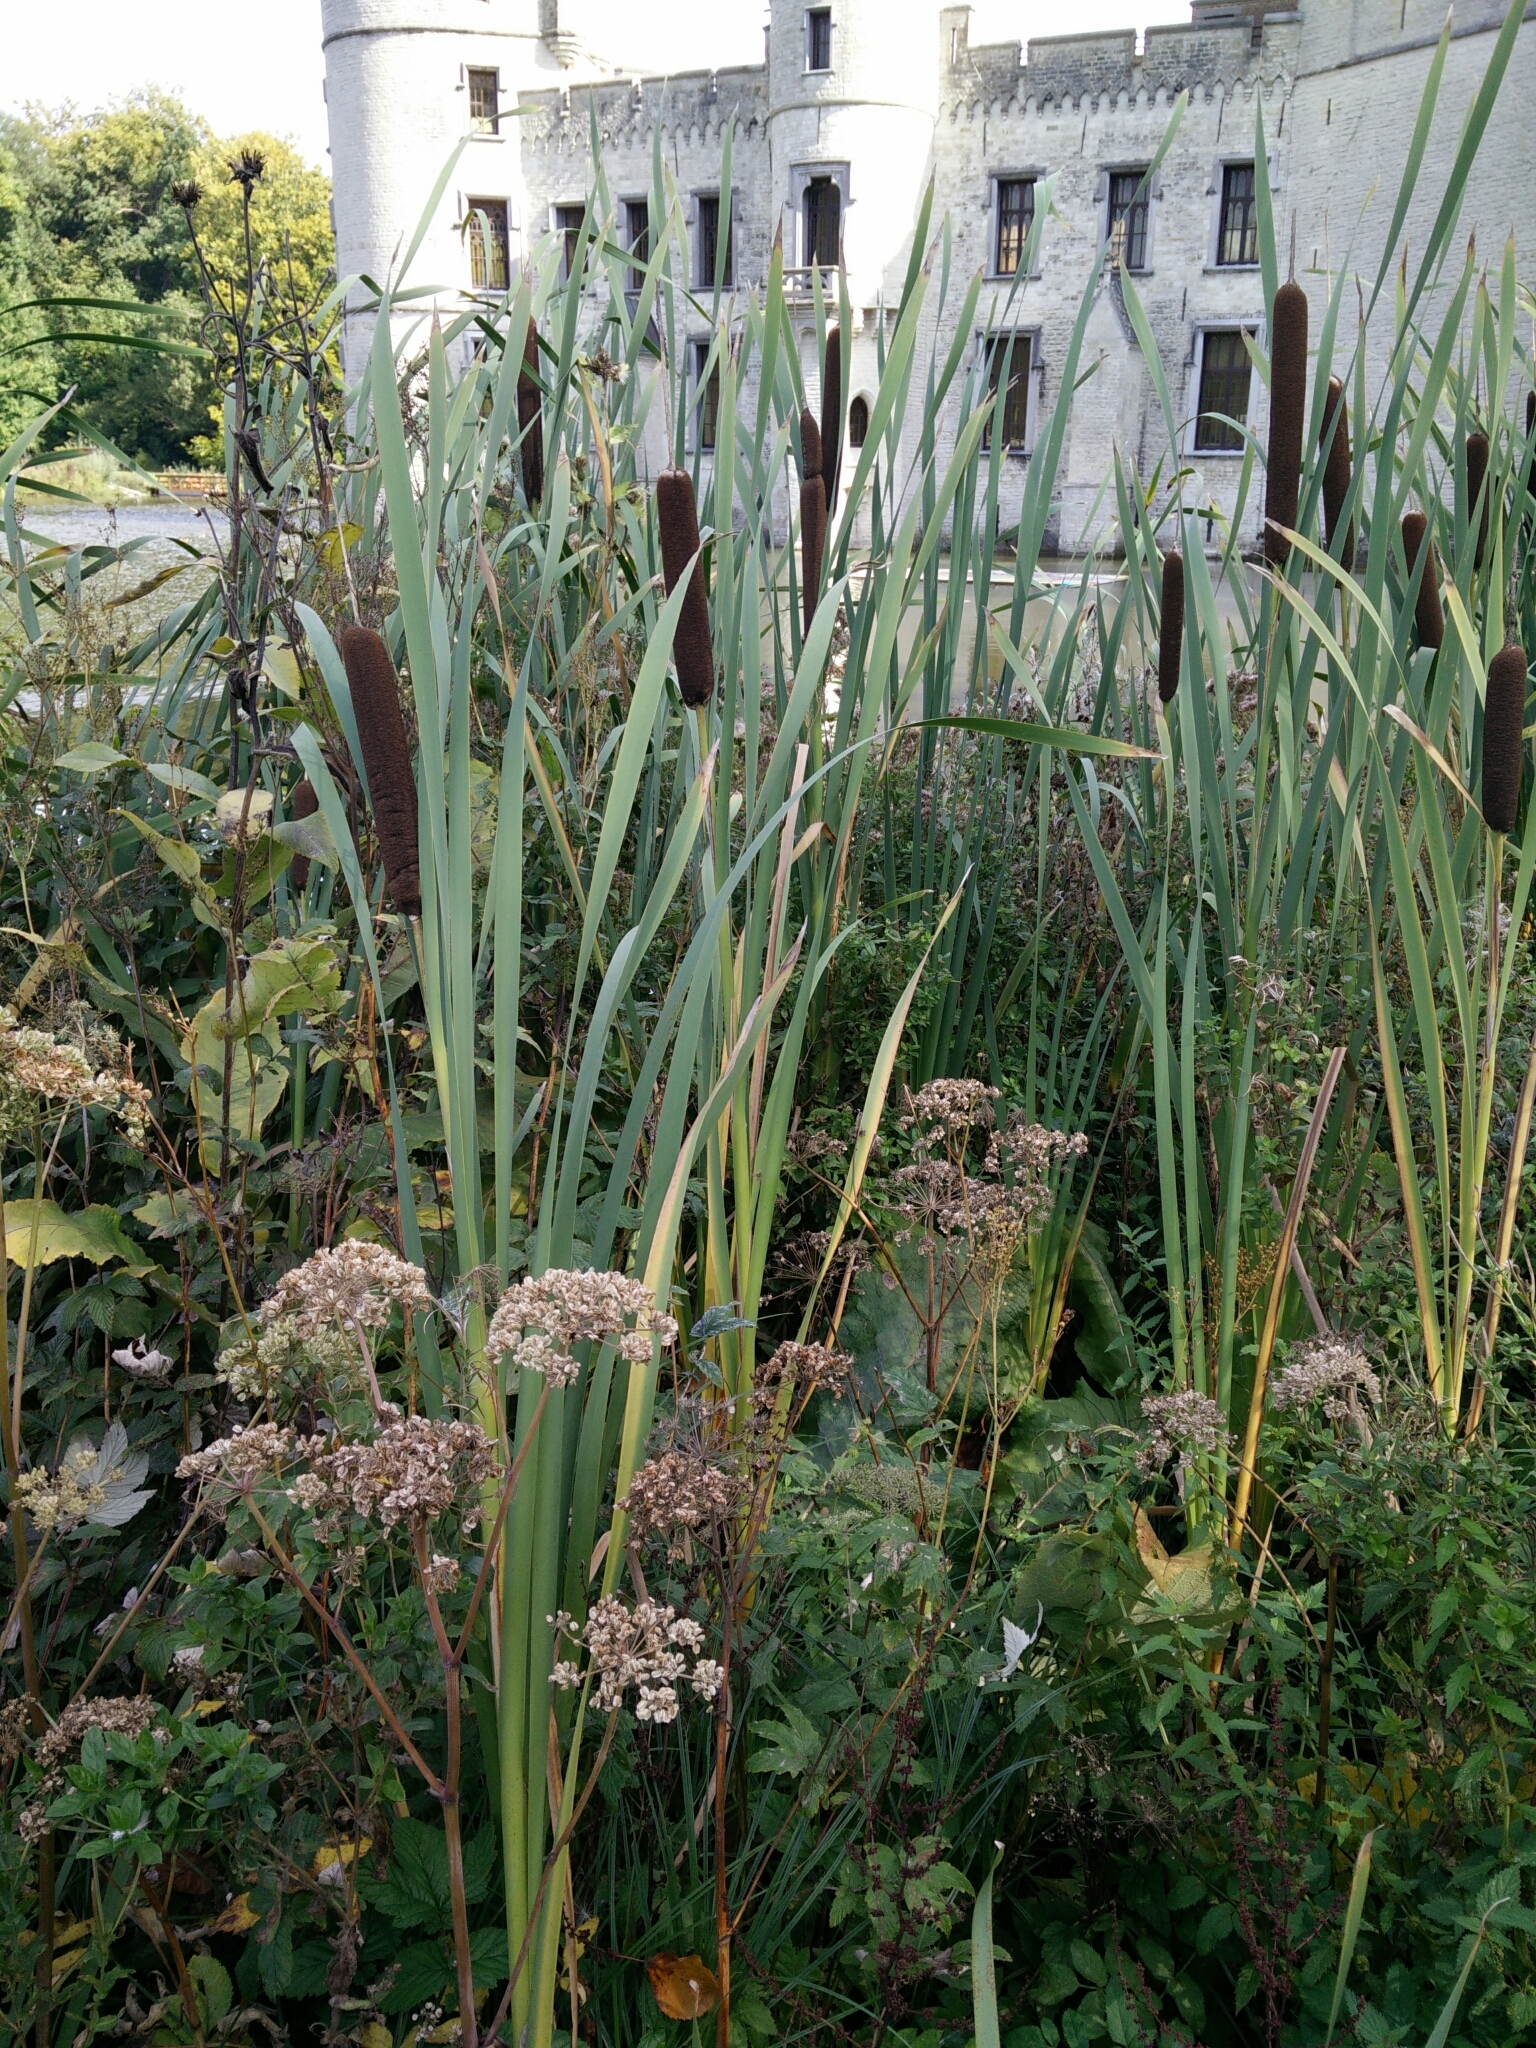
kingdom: Plantae
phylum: Tracheophyta
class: Liliopsida
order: Poales
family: Typhaceae
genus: Typha
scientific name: Typha latifolia
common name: Broadleaf cattail
